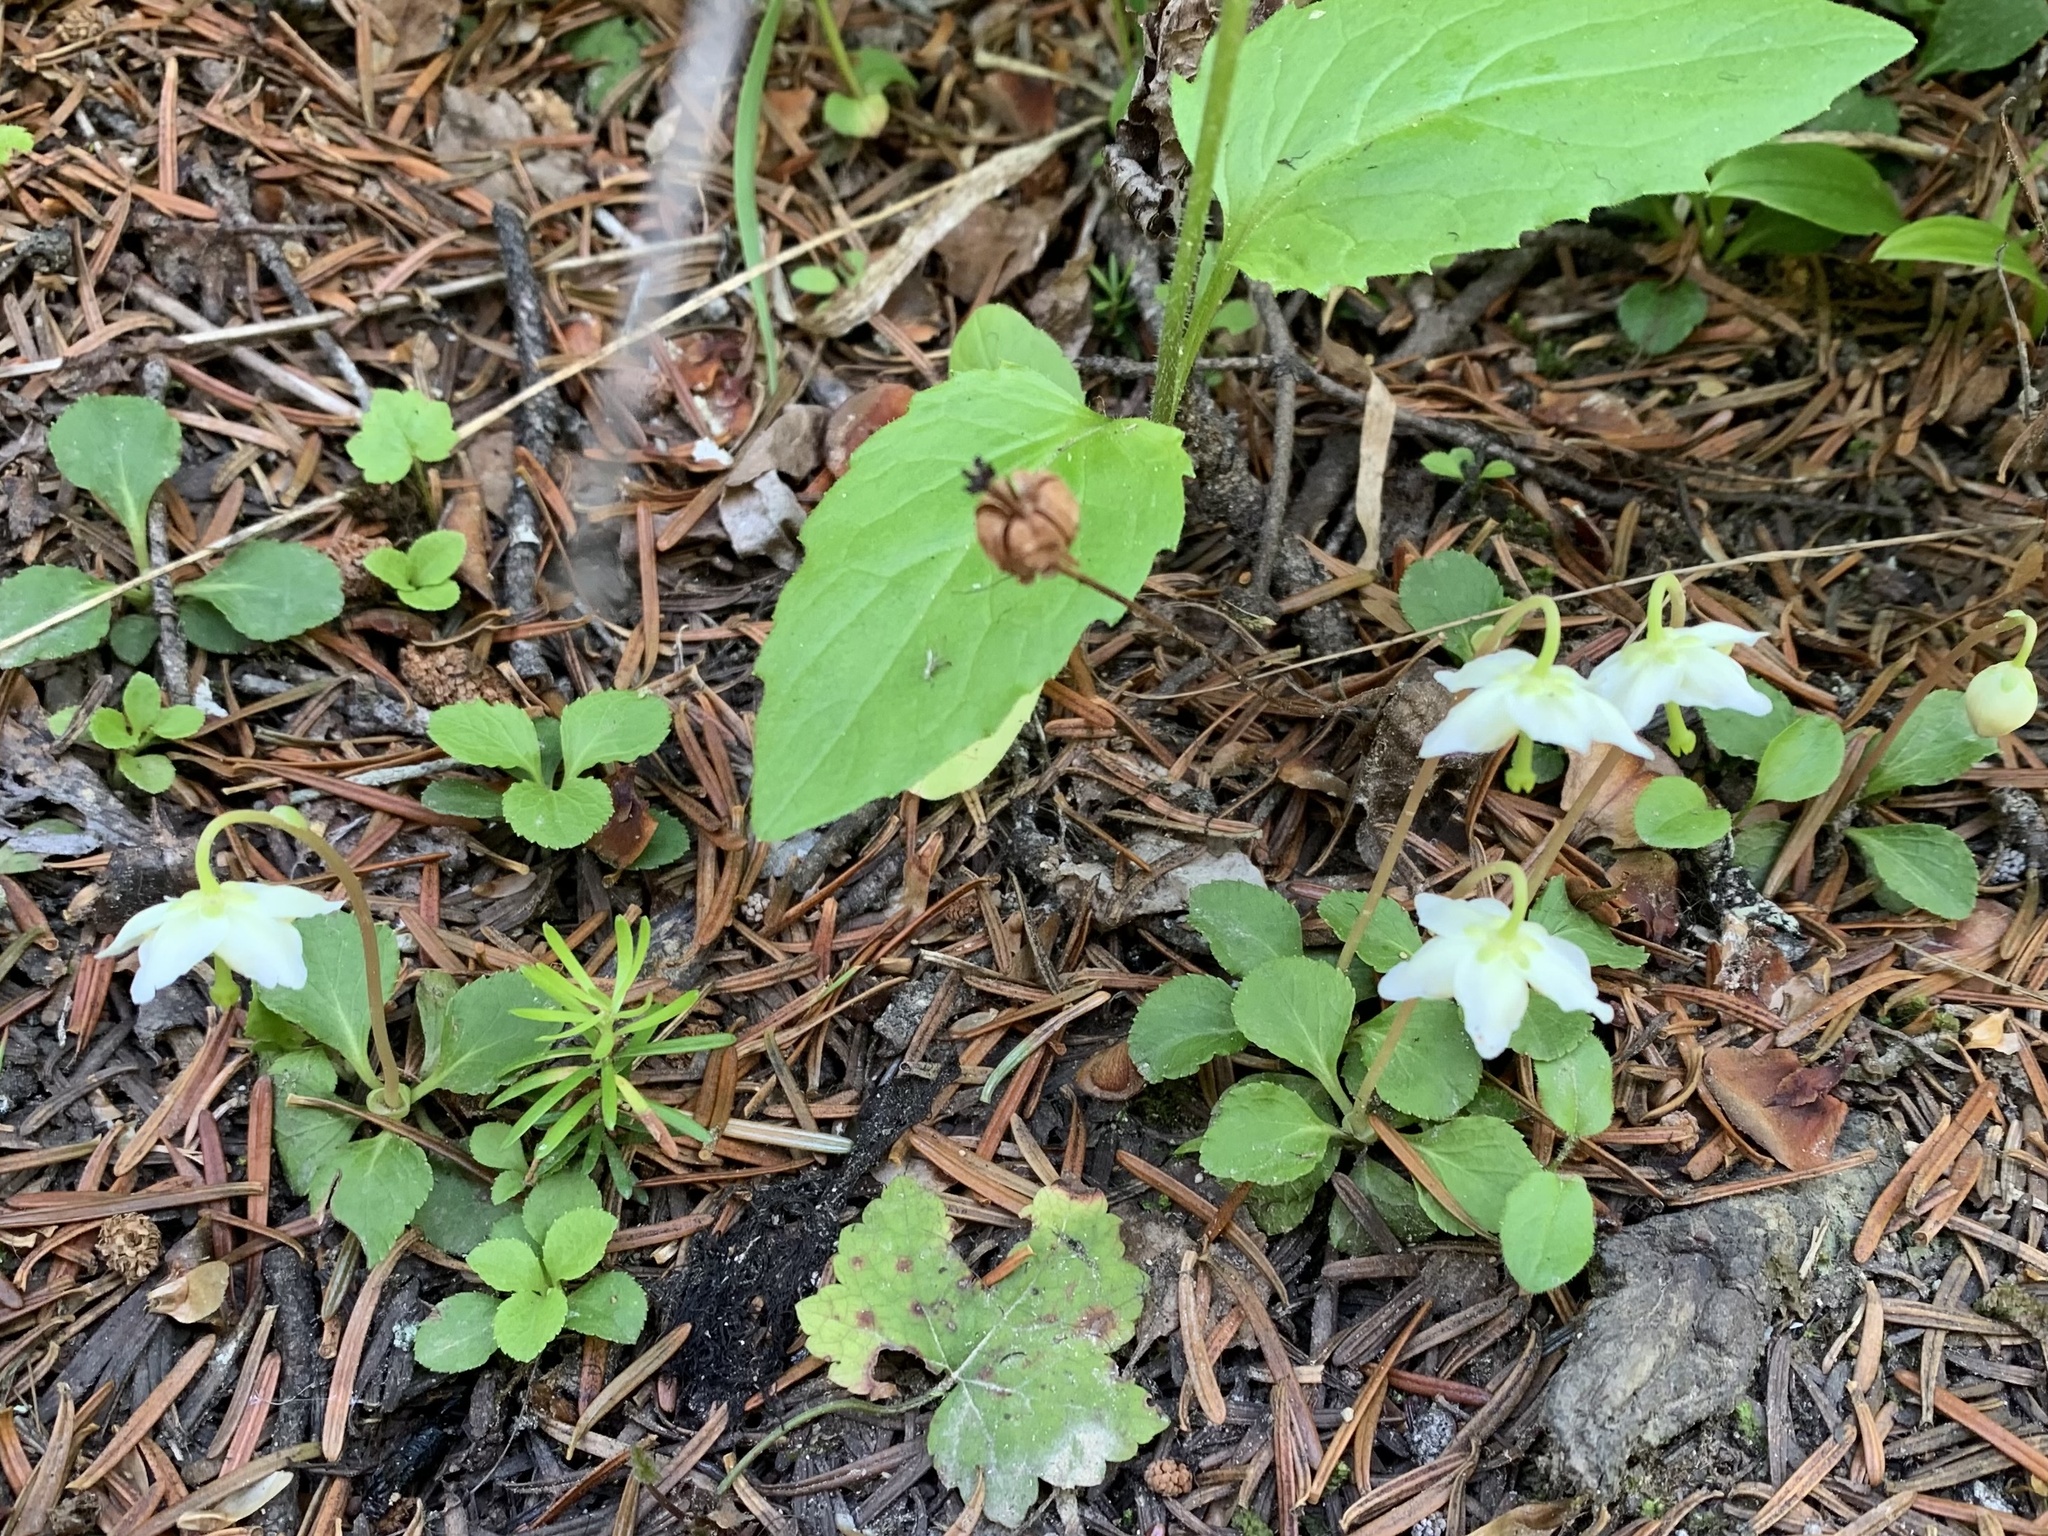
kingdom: Plantae
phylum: Tracheophyta
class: Magnoliopsida
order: Ericales
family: Ericaceae
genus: Moneses
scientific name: Moneses uniflora
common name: One-flowered wintergreen
